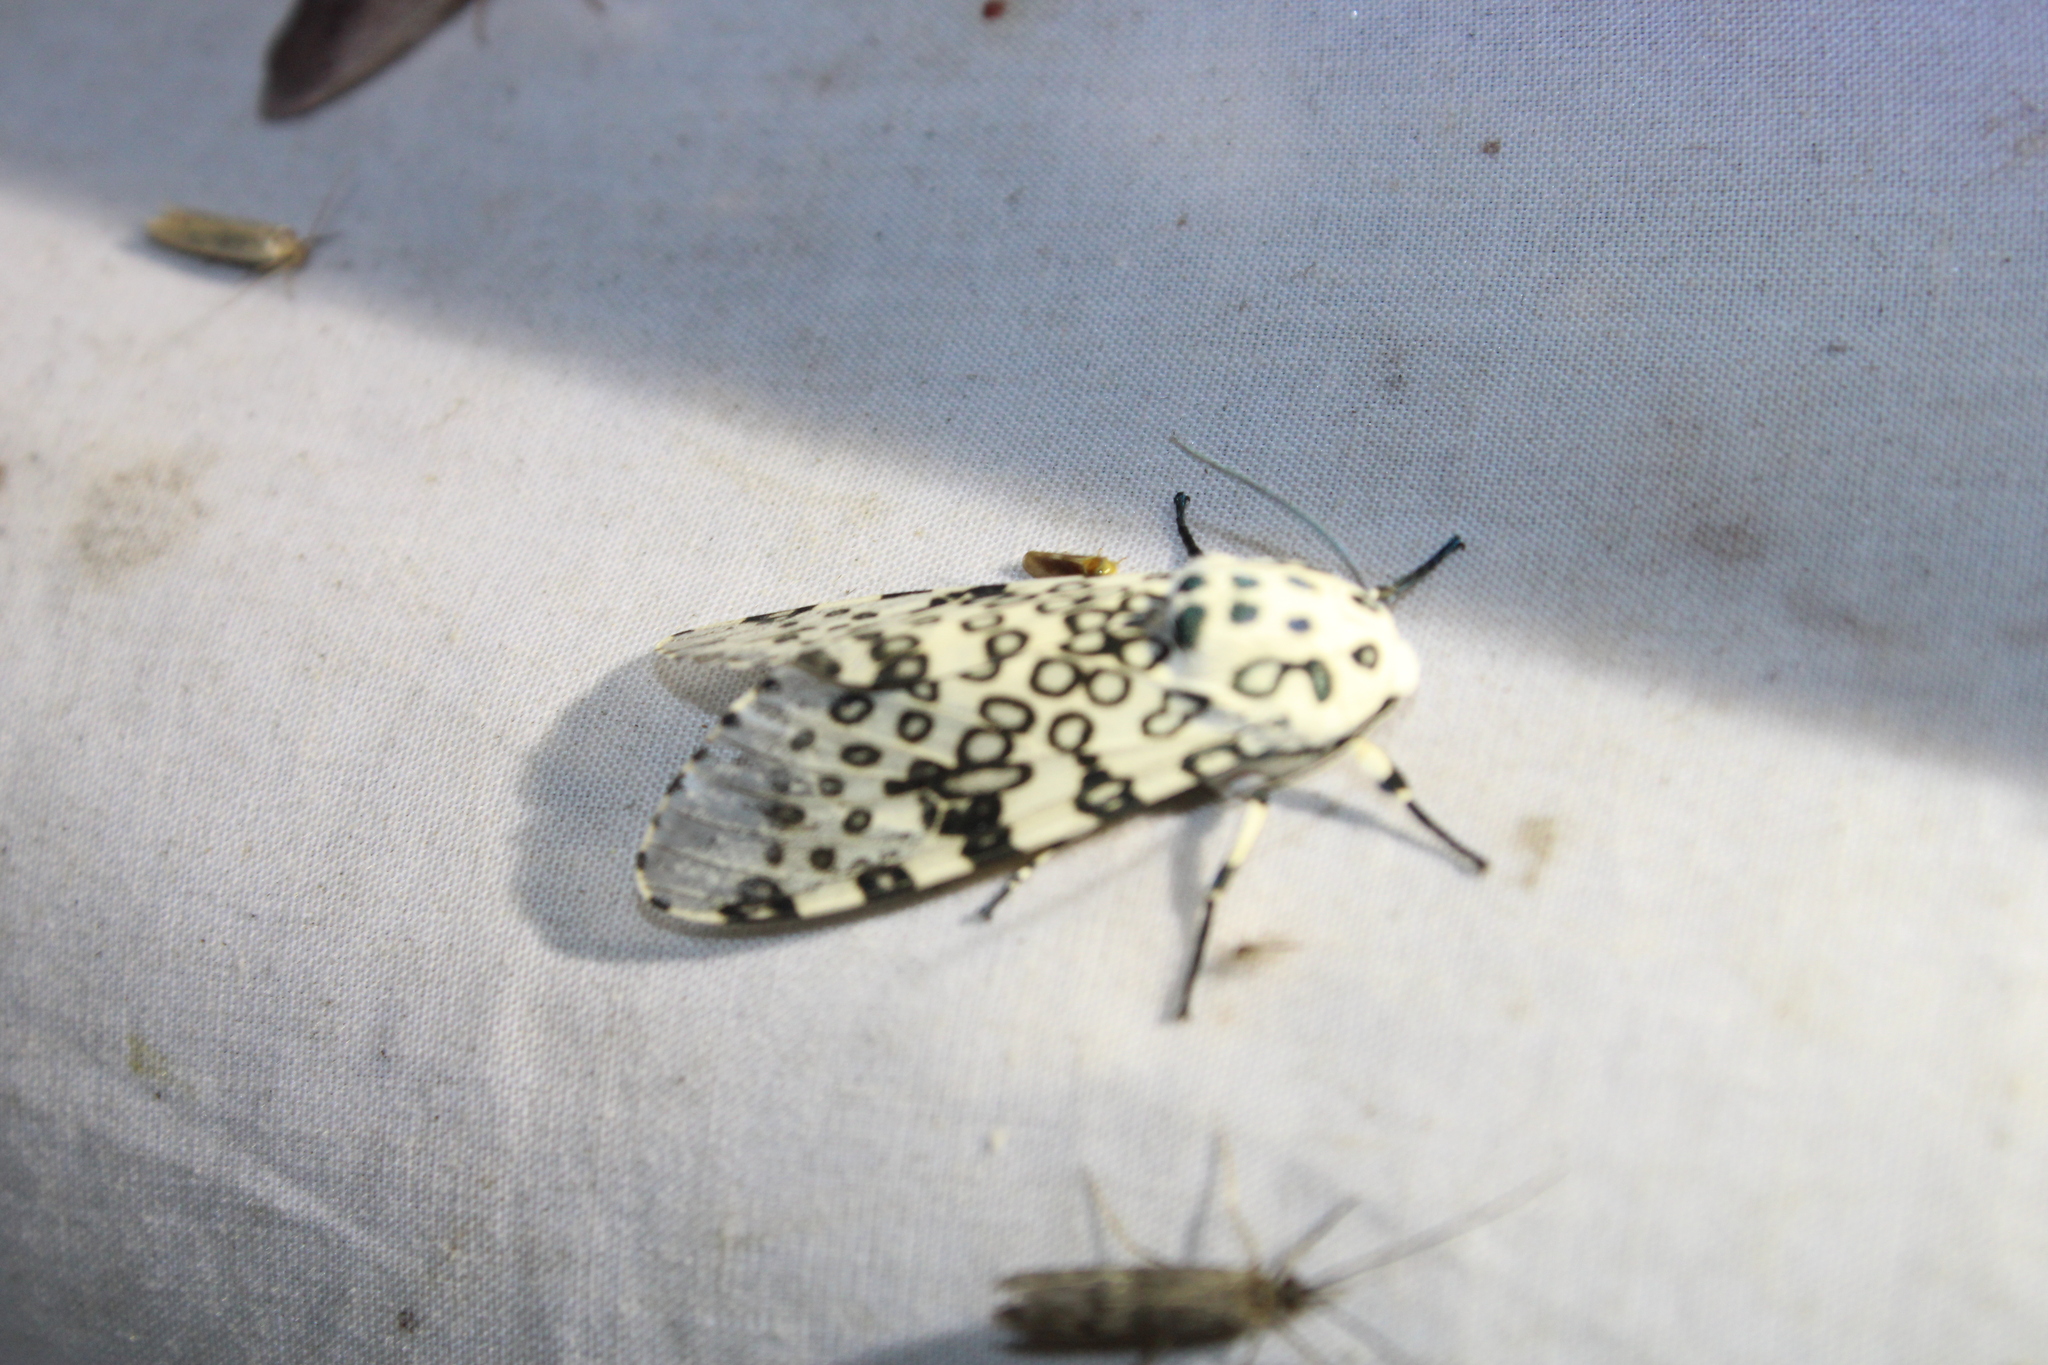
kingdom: Animalia
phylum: Arthropoda
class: Insecta
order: Lepidoptera
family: Erebidae
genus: Hypercompe
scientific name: Hypercompe scribonia
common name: Giant leopard moth
